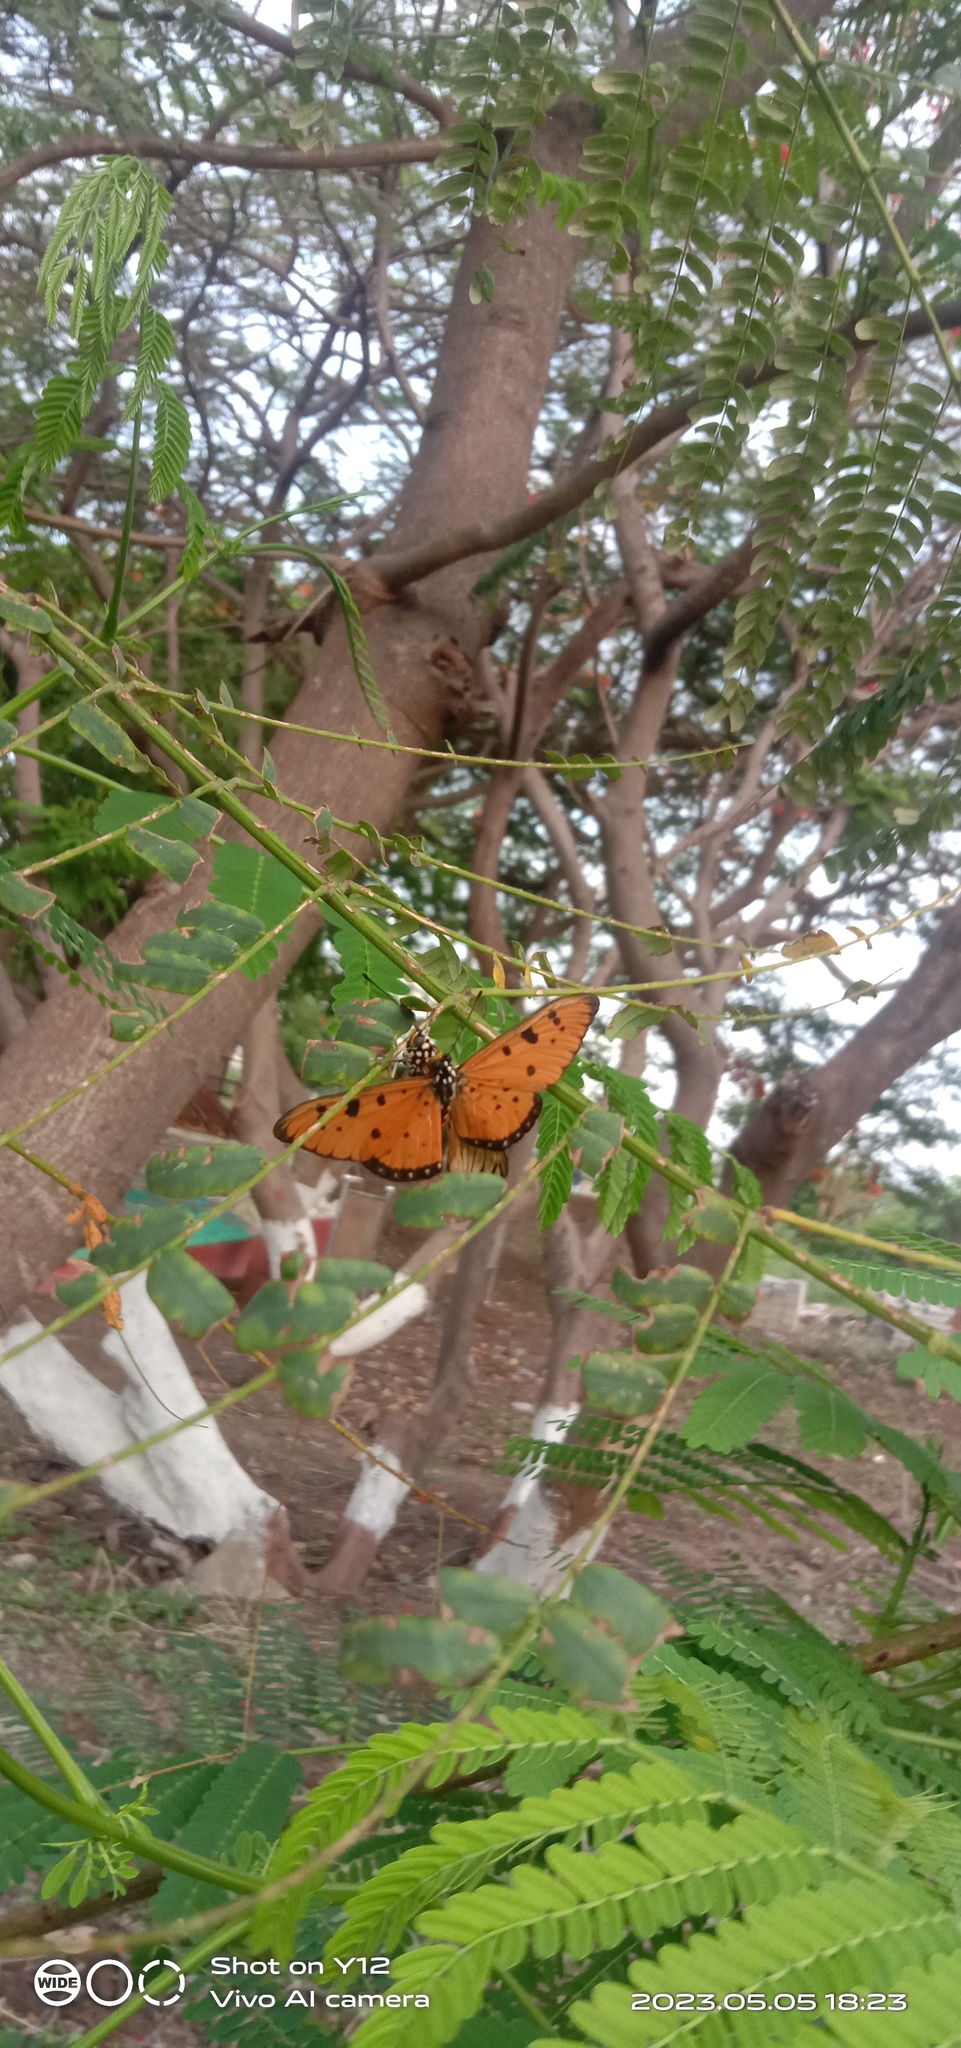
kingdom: Animalia
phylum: Arthropoda
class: Insecta
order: Lepidoptera
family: Nymphalidae
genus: Acraea
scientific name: Acraea terpsicore
